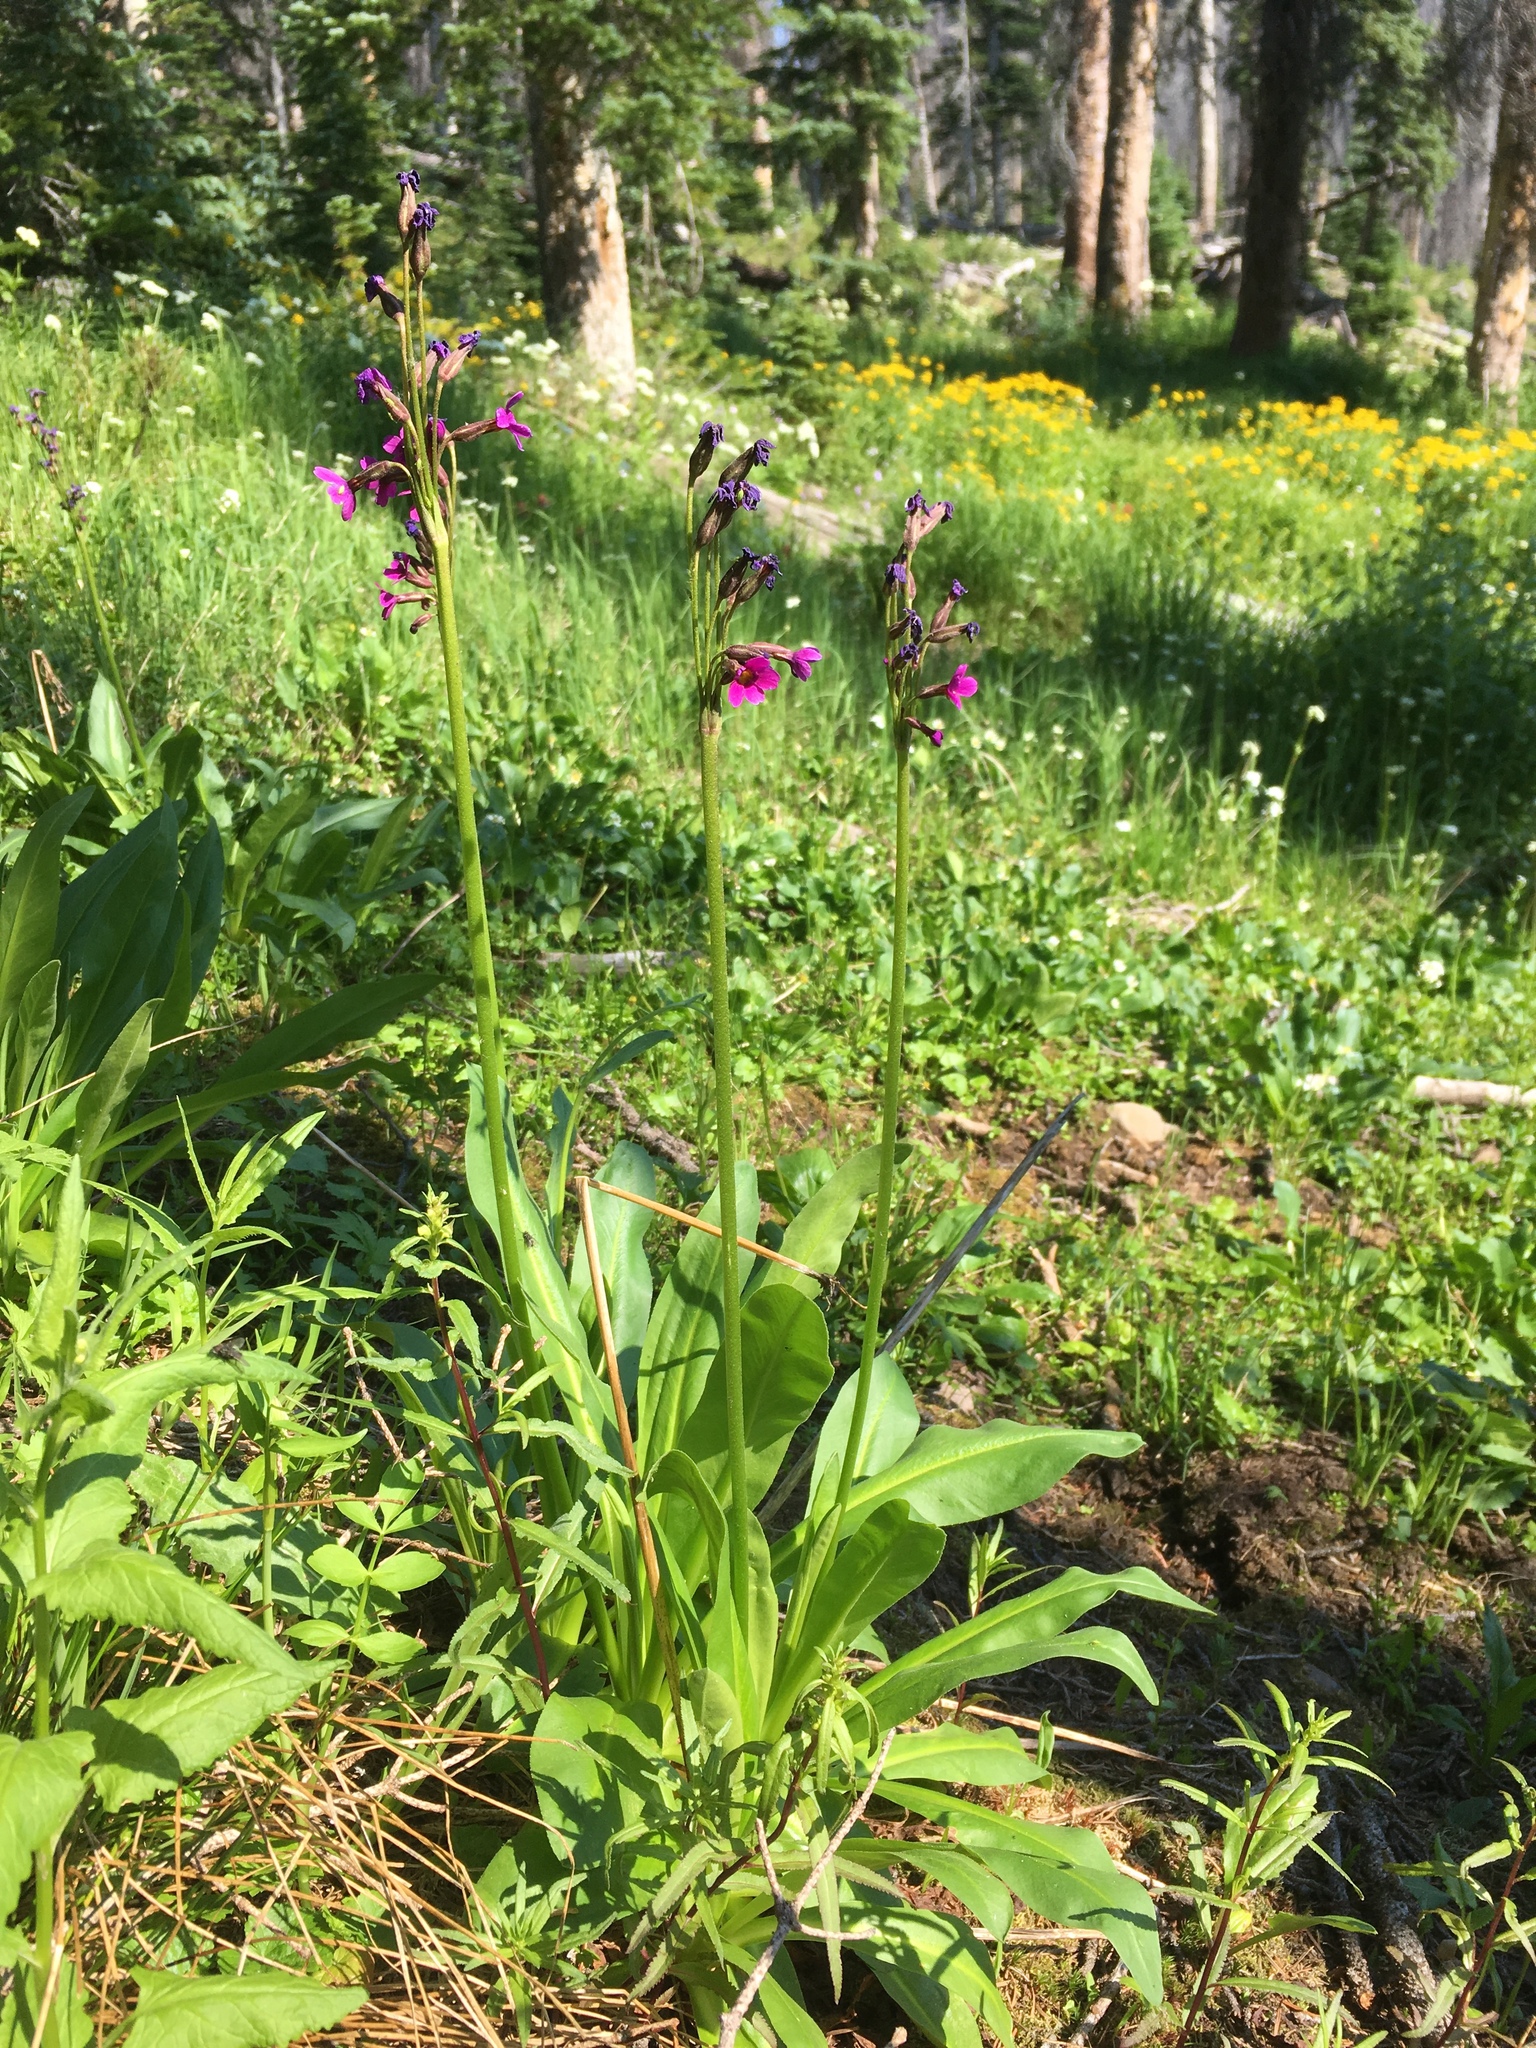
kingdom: Plantae
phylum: Tracheophyta
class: Magnoliopsida
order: Ericales
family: Primulaceae
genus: Primula
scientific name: Primula parryi
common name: Parry's primrose
